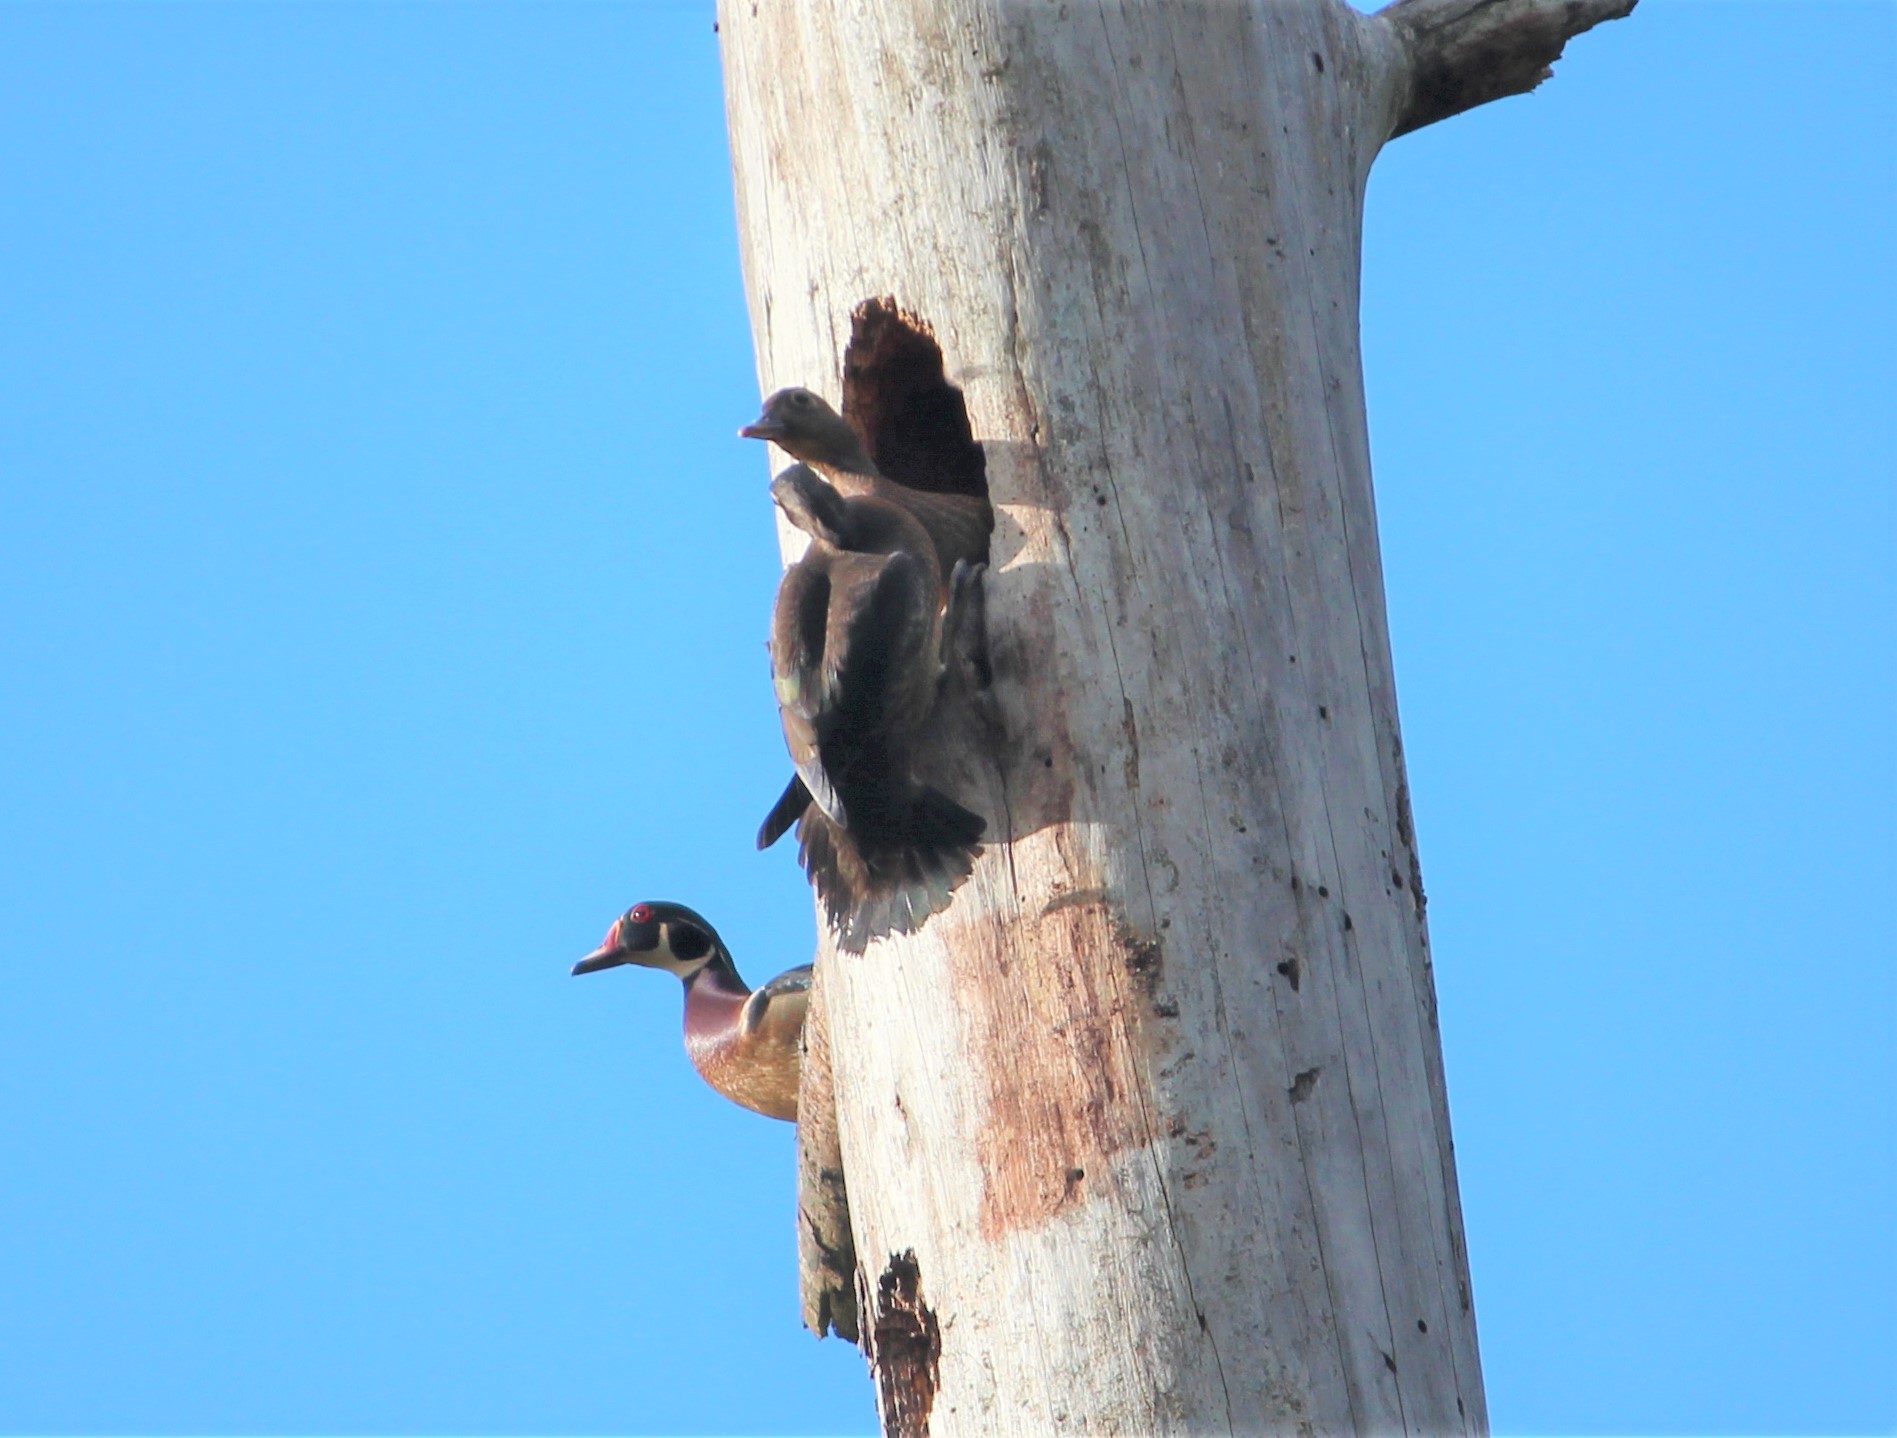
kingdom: Animalia
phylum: Chordata
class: Aves
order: Anseriformes
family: Anatidae
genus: Aix
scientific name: Aix sponsa
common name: Wood duck
